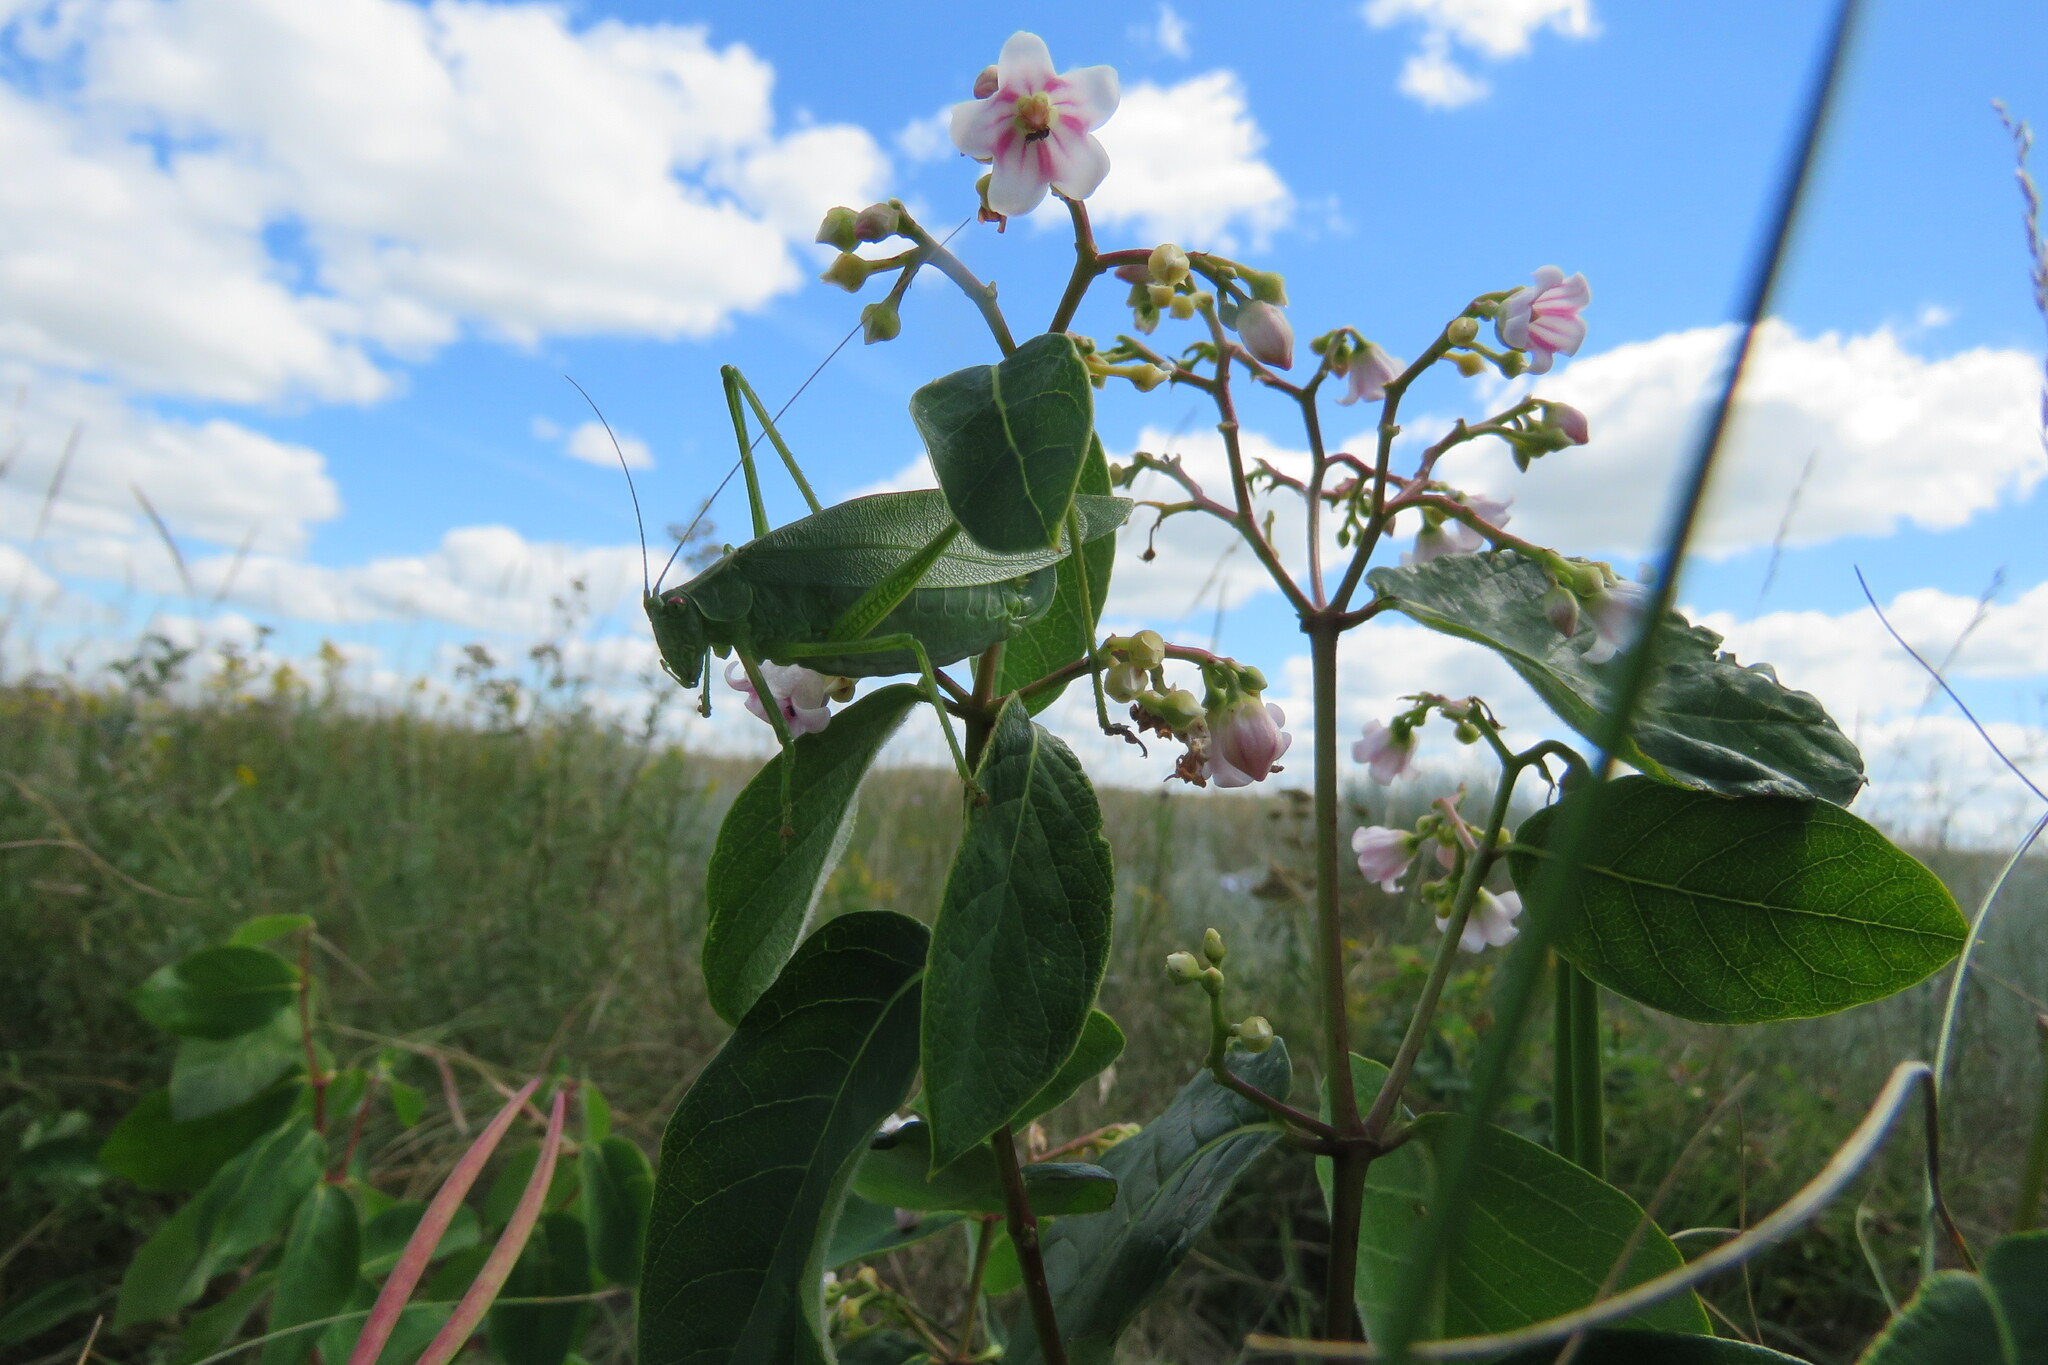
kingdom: Animalia
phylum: Arthropoda
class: Insecta
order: Orthoptera
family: Tettigoniidae
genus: Scudderia
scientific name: Scudderia pistillata
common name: Broad-winged bush-katydid
